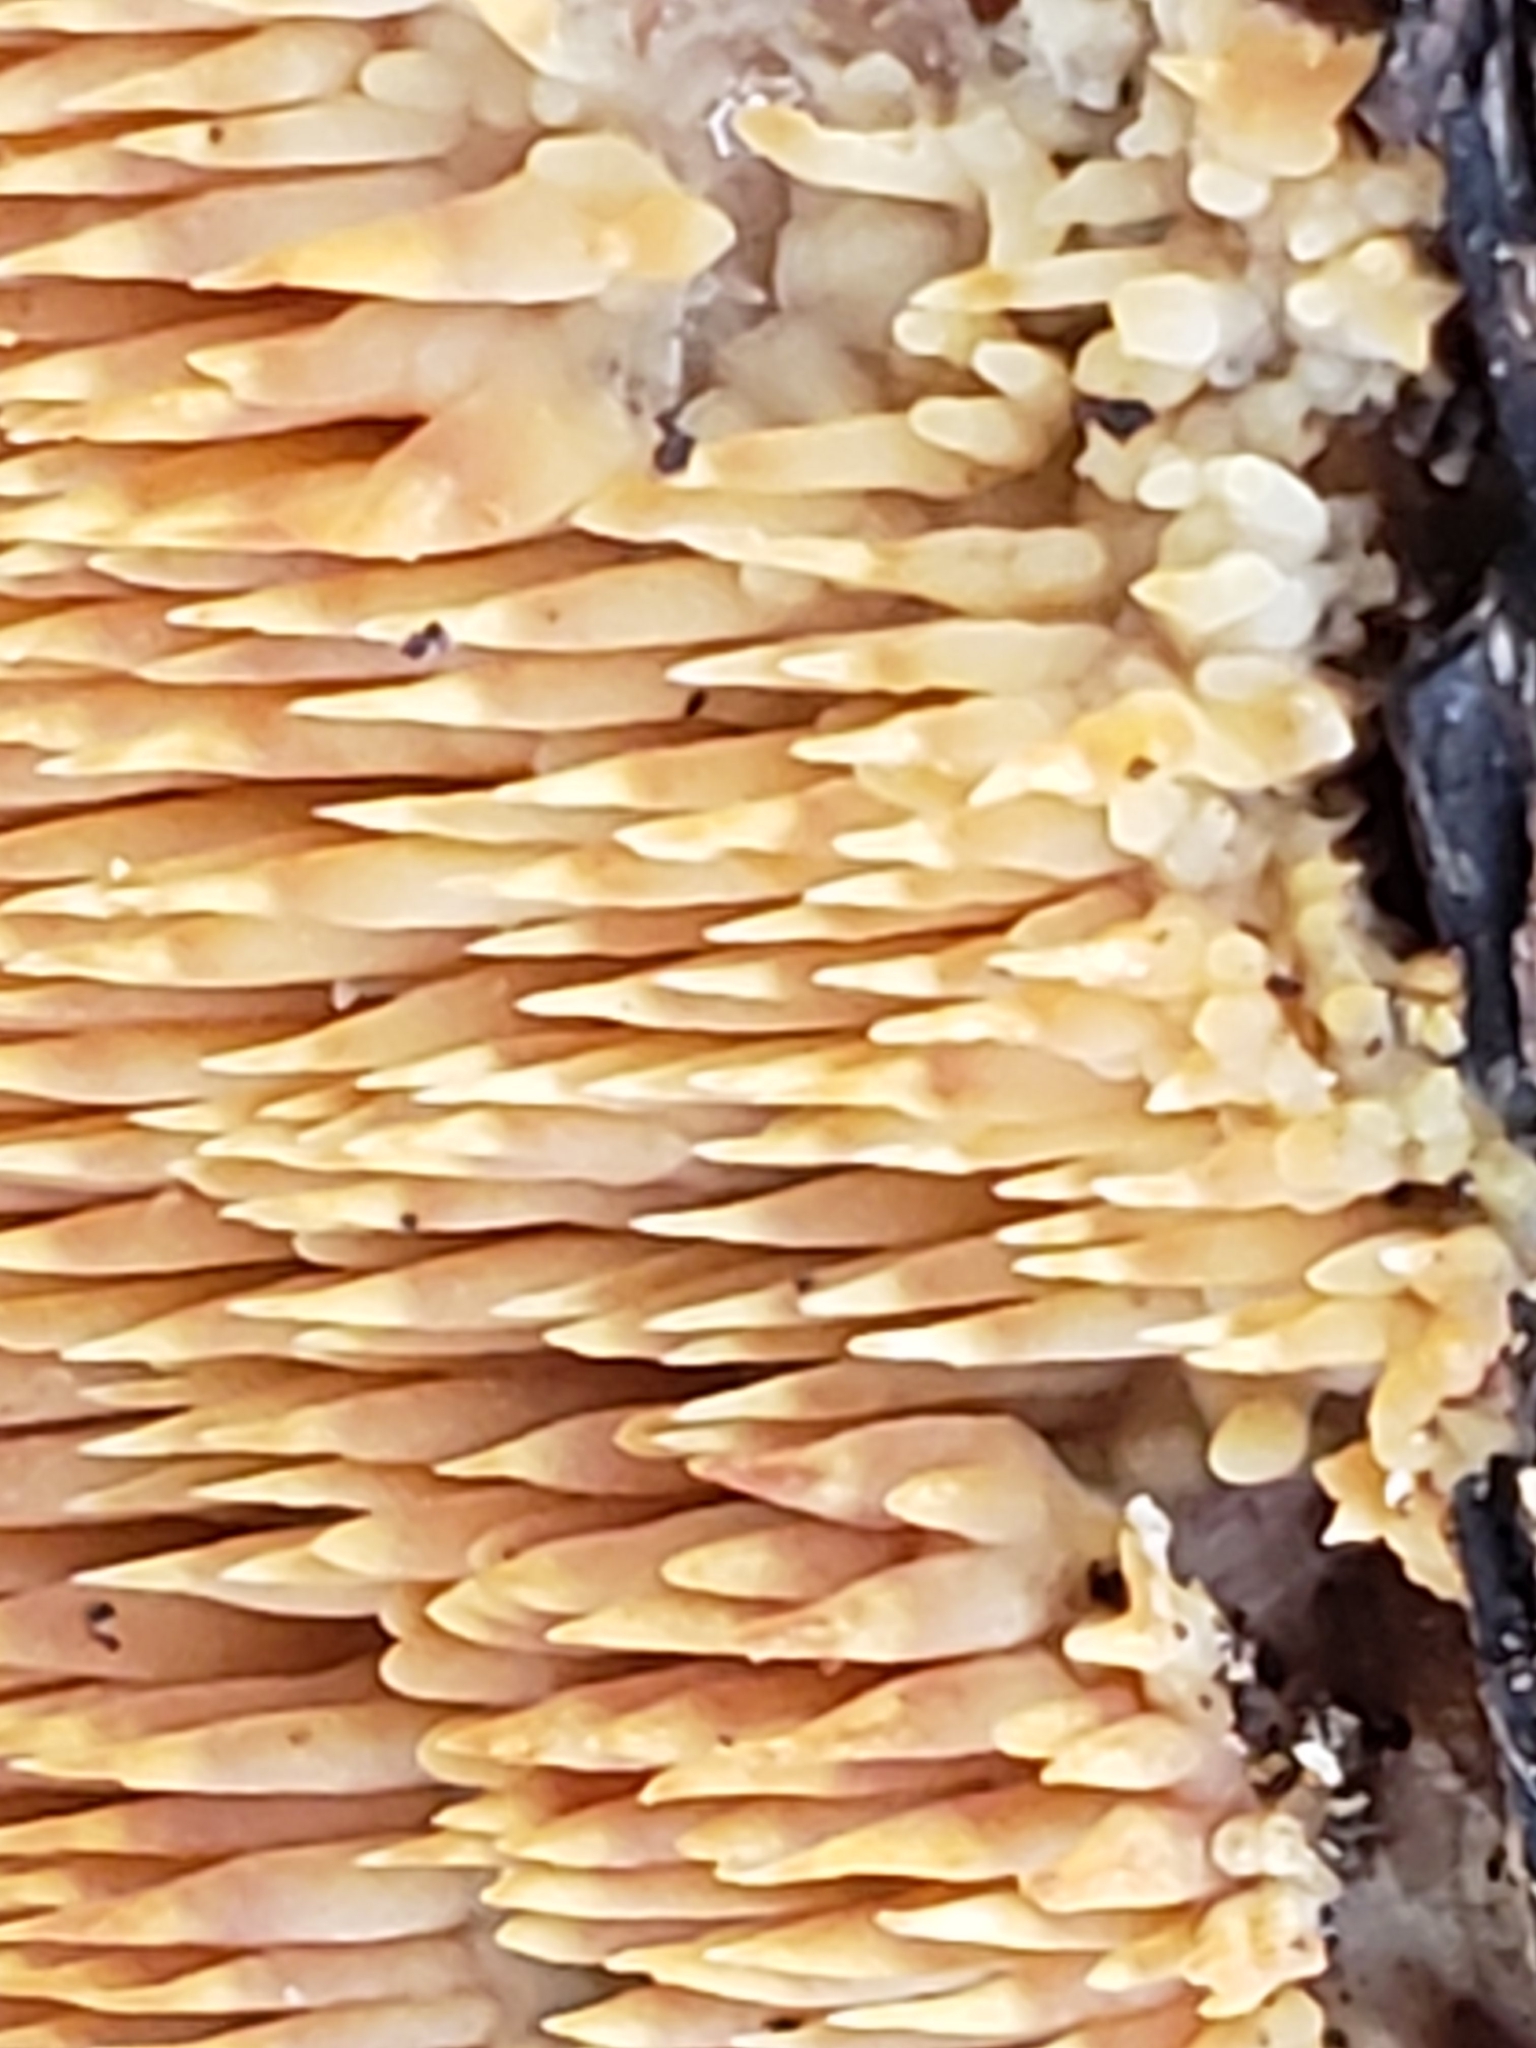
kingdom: Fungi
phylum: Basidiomycota
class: Agaricomycetes
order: Agaricales
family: Radulomycetaceae
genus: Radulomyces
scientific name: Radulomyces copelandii
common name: Asian beauty
